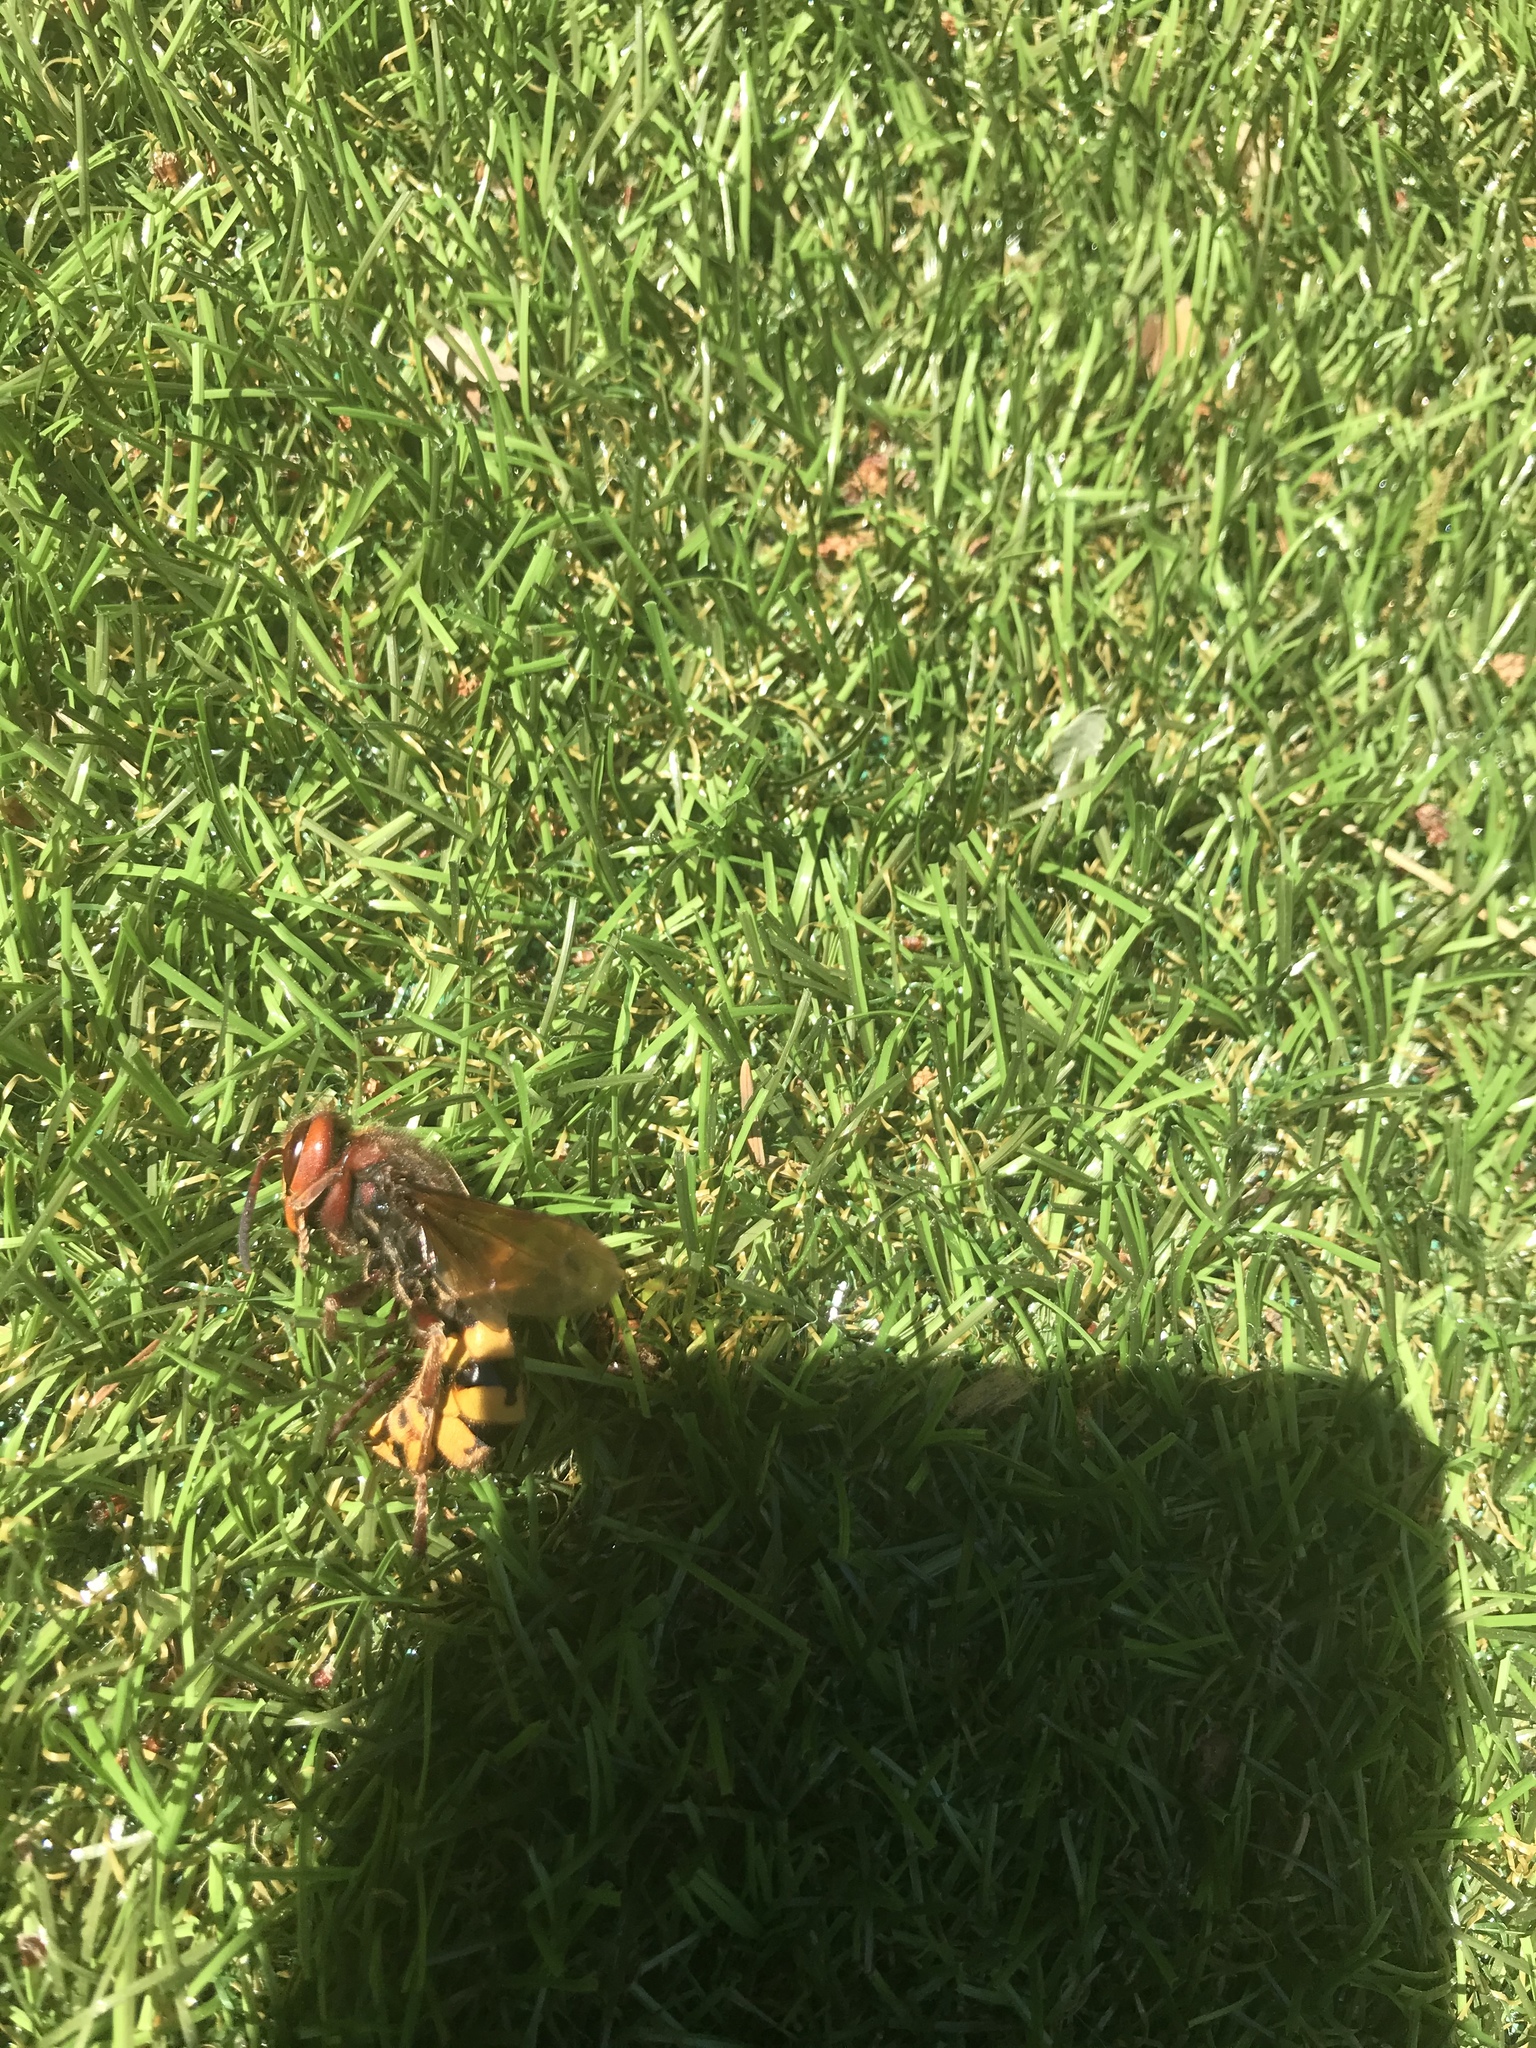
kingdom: Animalia
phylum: Arthropoda
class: Insecta
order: Hymenoptera
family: Vespidae
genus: Vespa
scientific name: Vespa crabro
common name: Hornet
